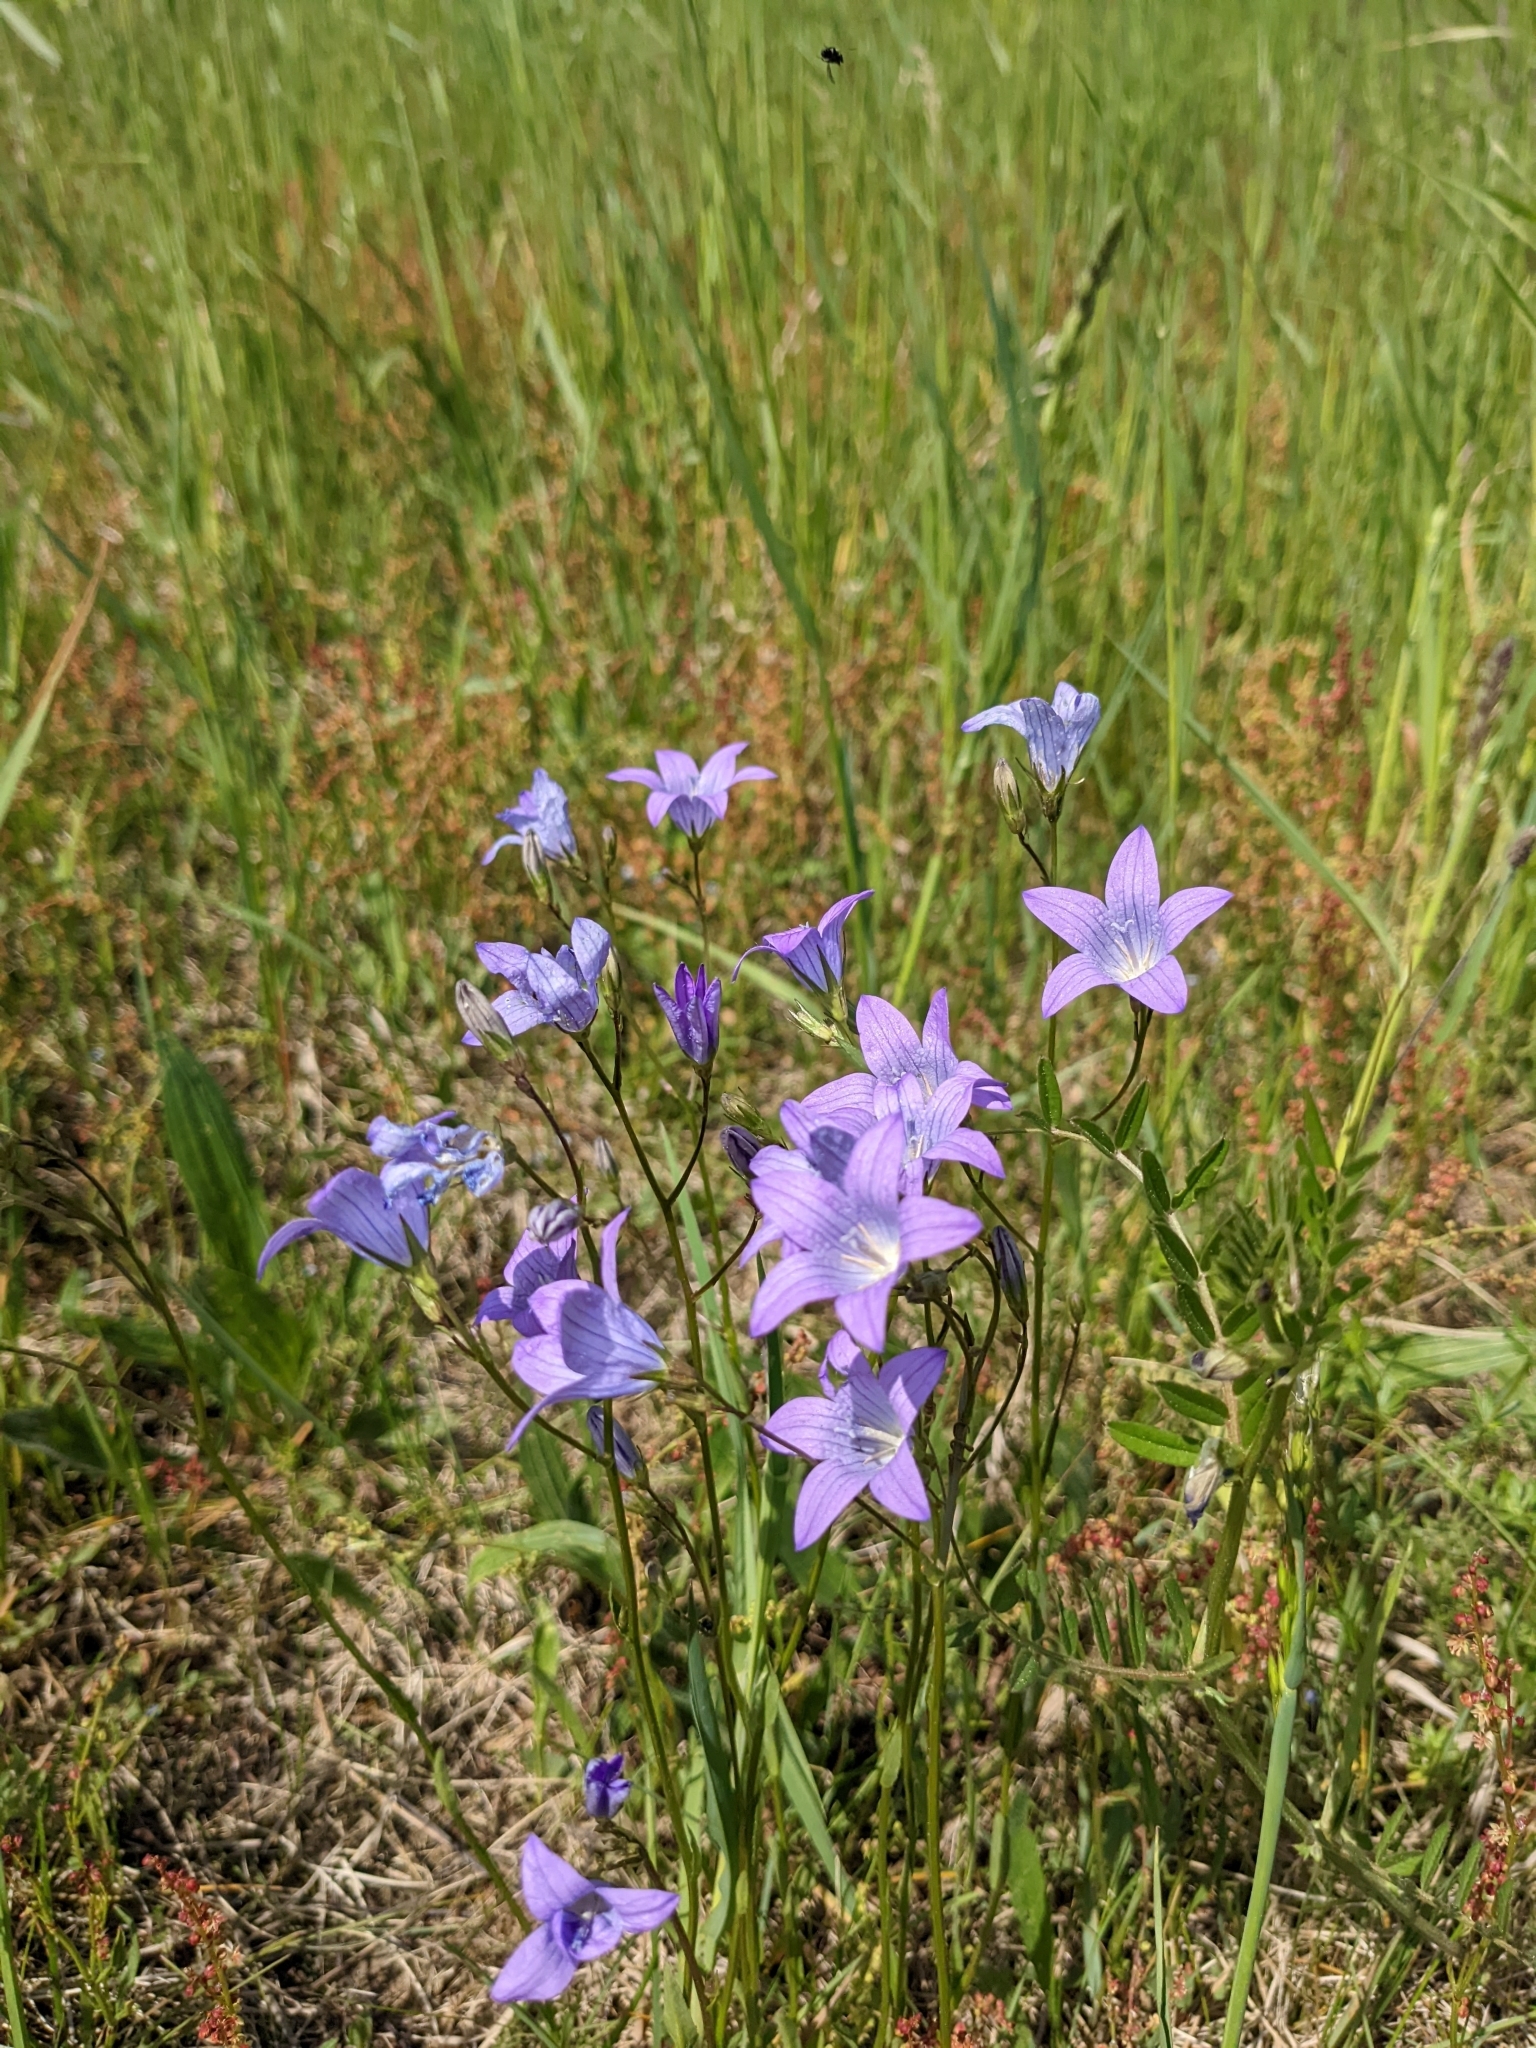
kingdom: Plantae
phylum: Tracheophyta
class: Magnoliopsida
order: Asterales
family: Campanulaceae
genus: Campanula
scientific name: Campanula patula
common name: Spreading bellflower
